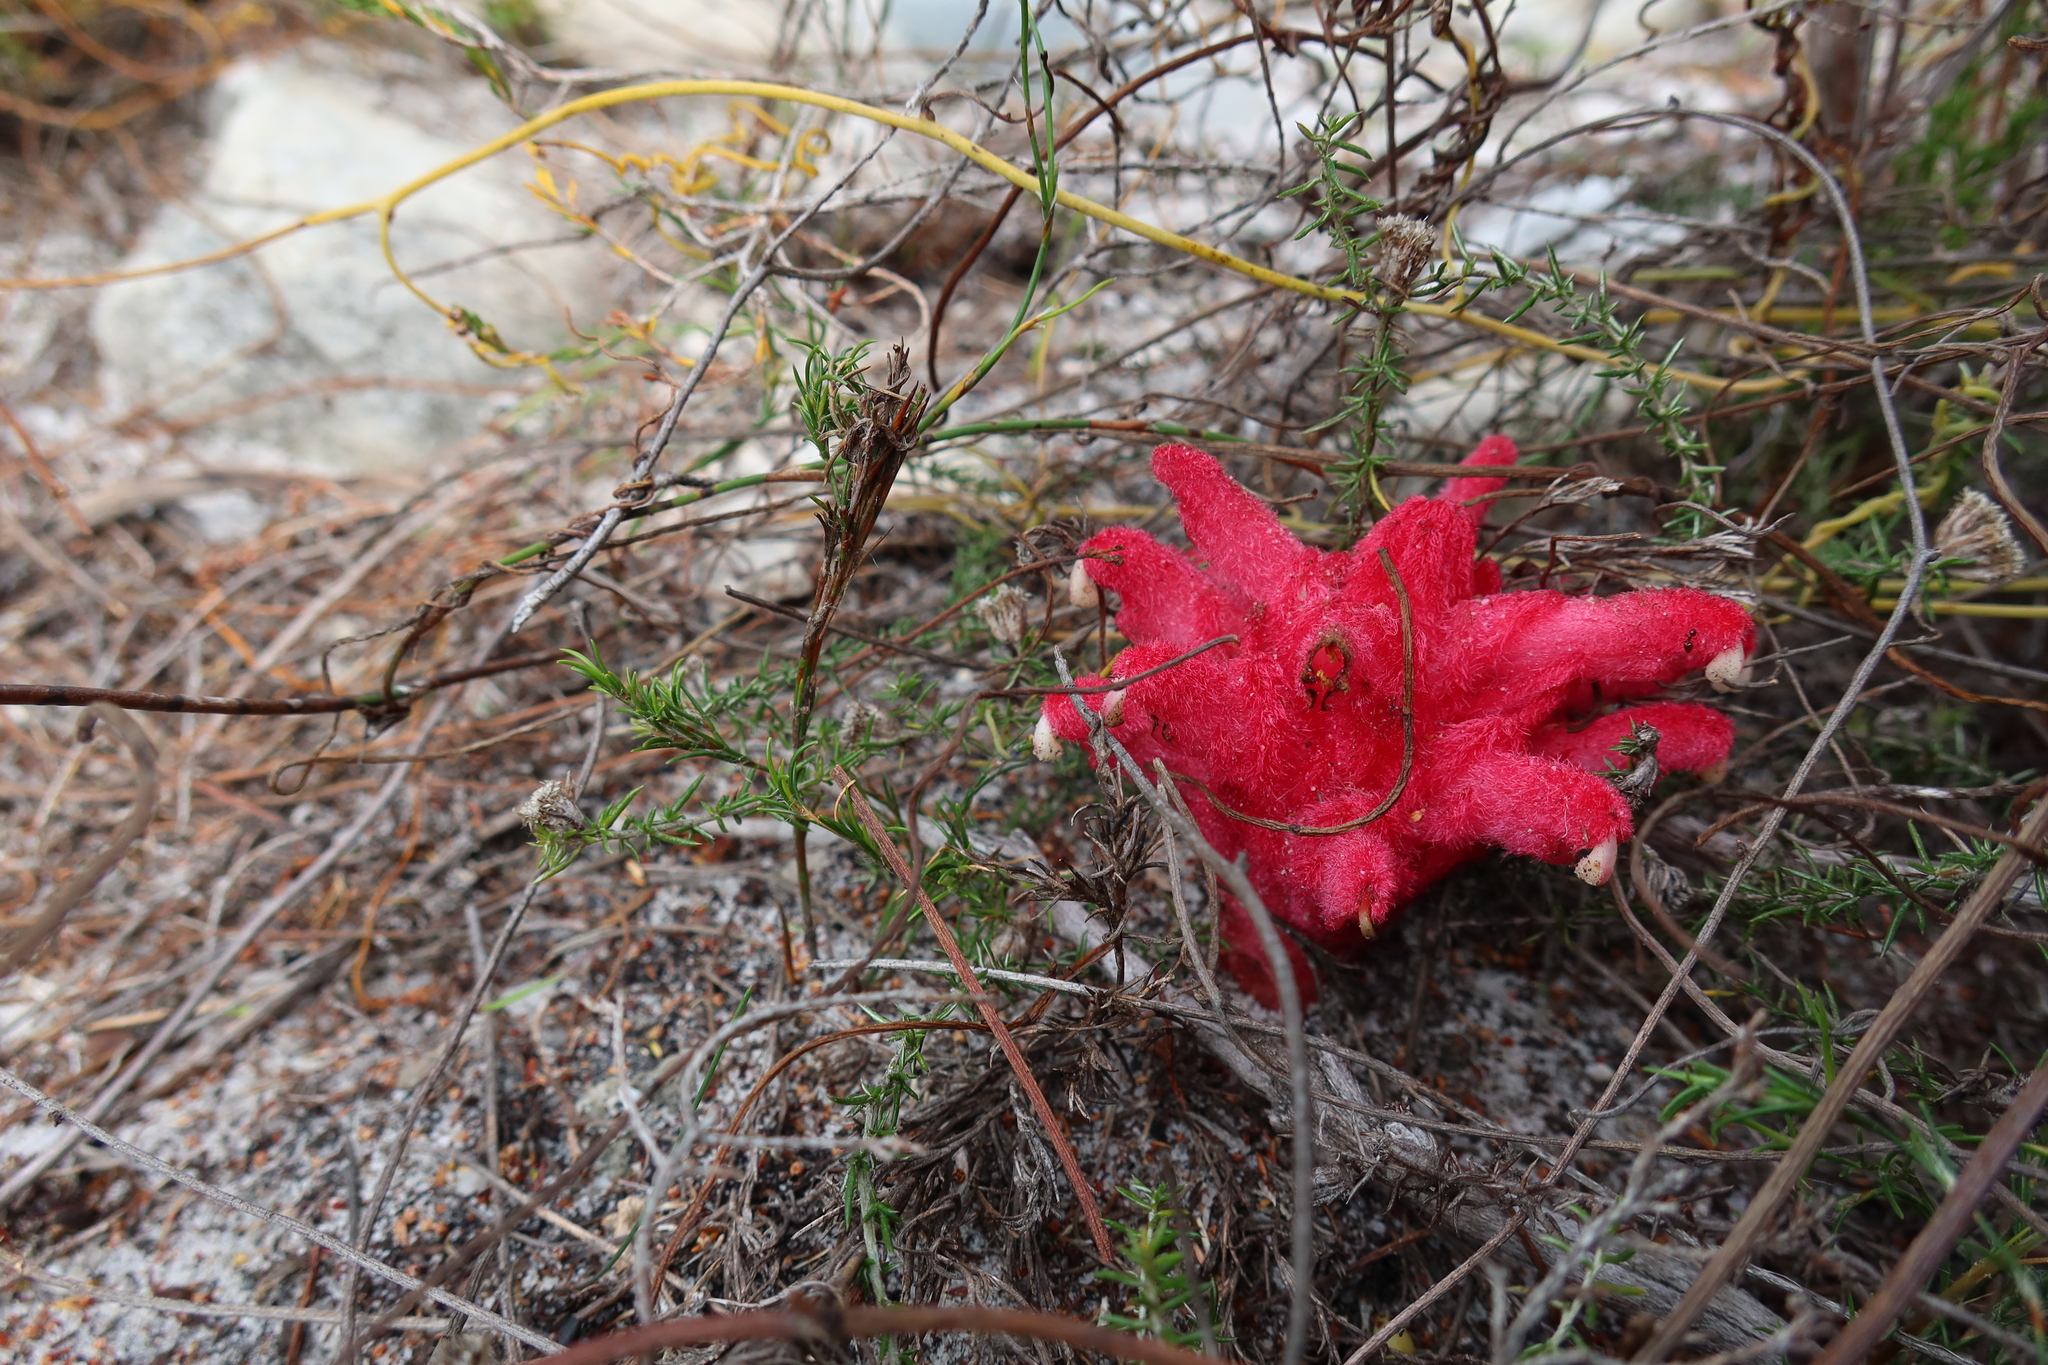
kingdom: Plantae
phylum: Tracheophyta
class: Magnoliopsida
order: Lamiales
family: Orobanchaceae
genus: Hyobanche
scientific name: Hyobanche sanguinea
